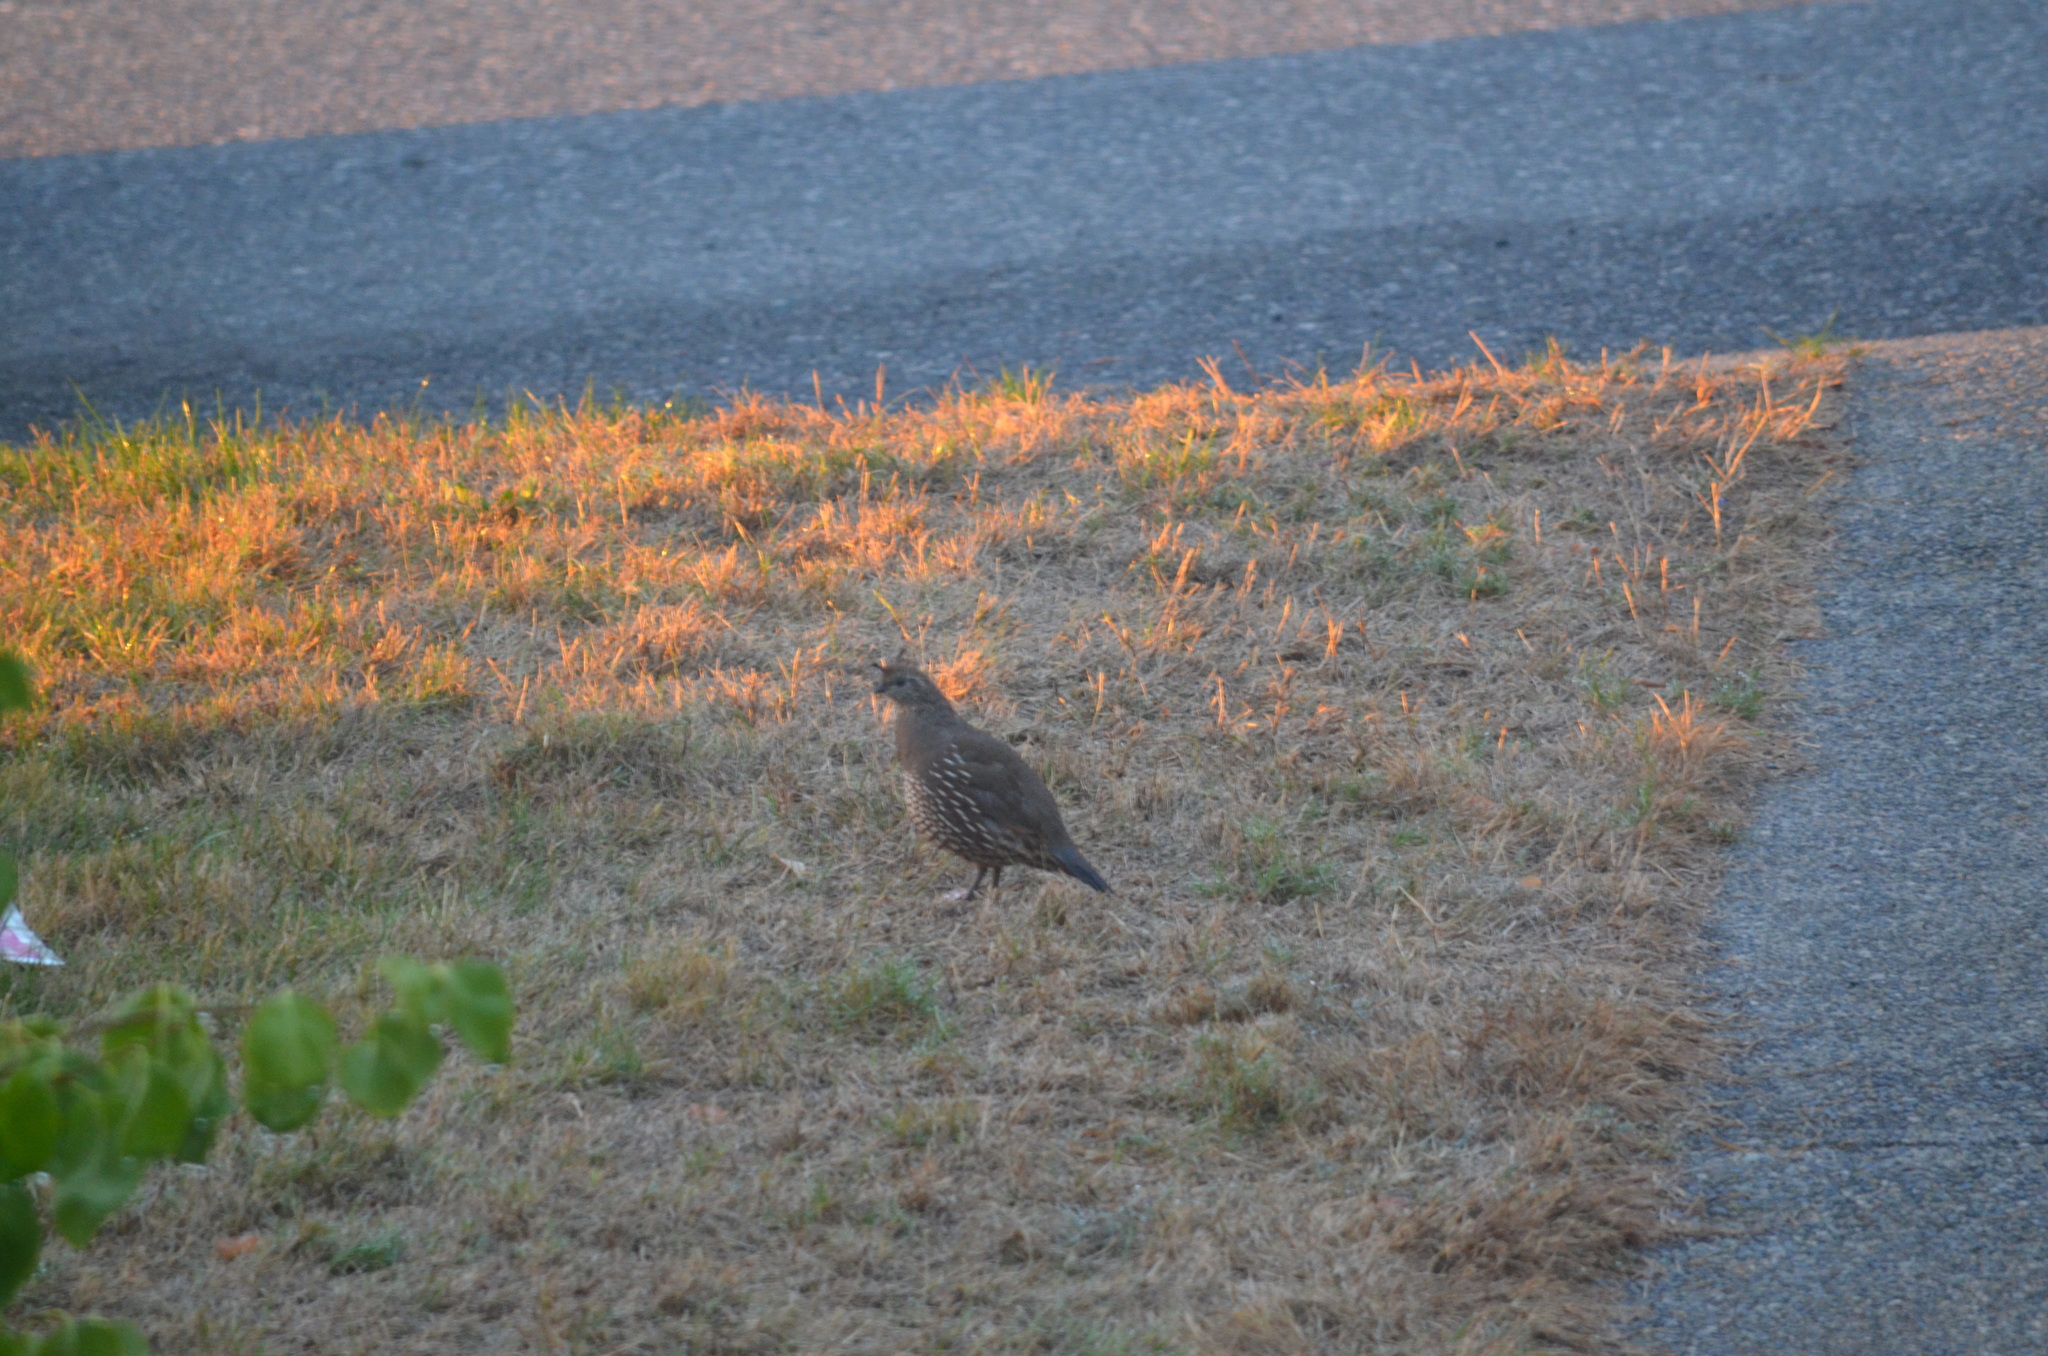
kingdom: Animalia
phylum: Chordata
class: Aves
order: Galliformes
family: Odontophoridae
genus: Callipepla
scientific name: Callipepla californica
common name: California quail
